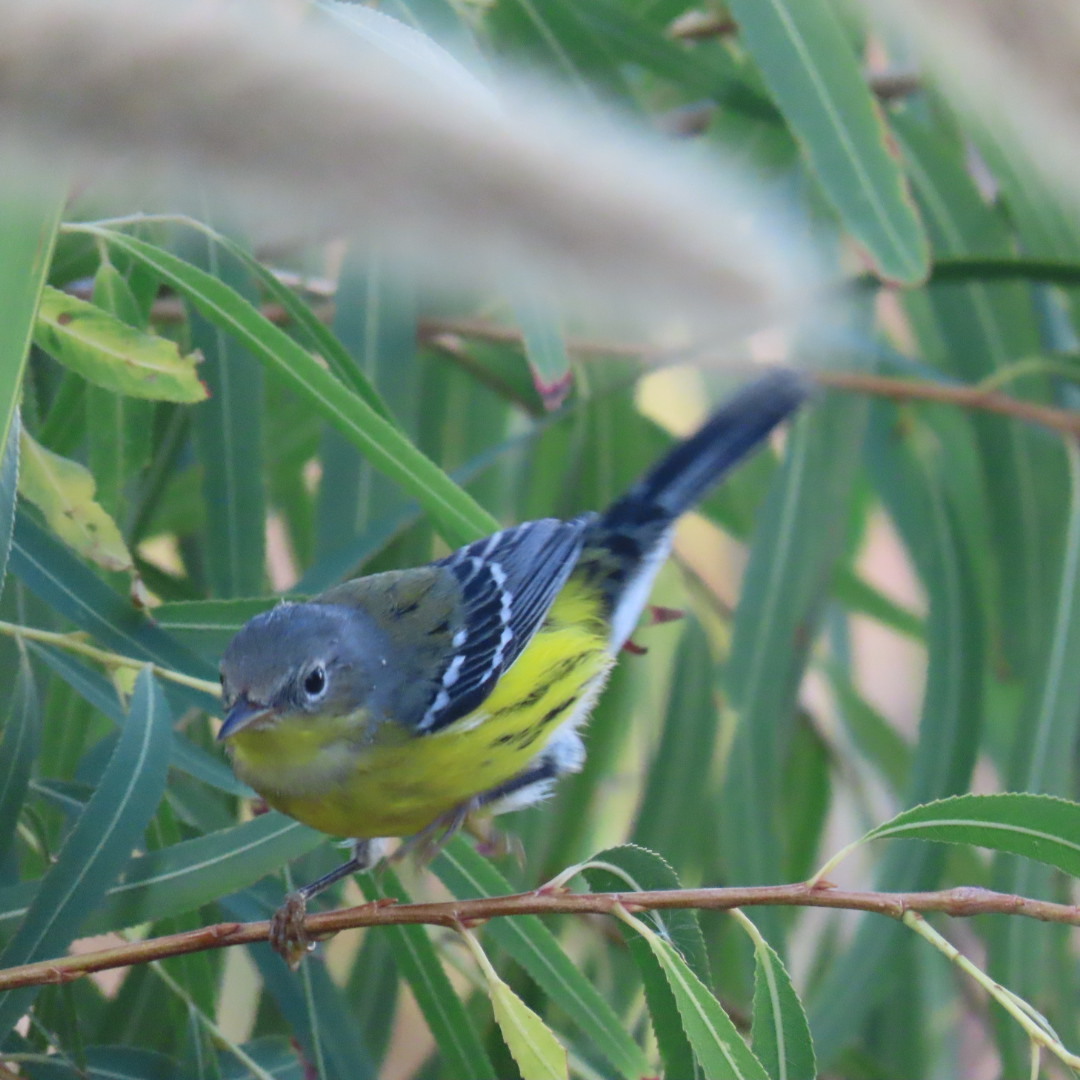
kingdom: Animalia
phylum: Chordata
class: Aves
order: Passeriformes
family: Parulidae
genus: Setophaga
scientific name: Setophaga magnolia
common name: Magnolia warbler
